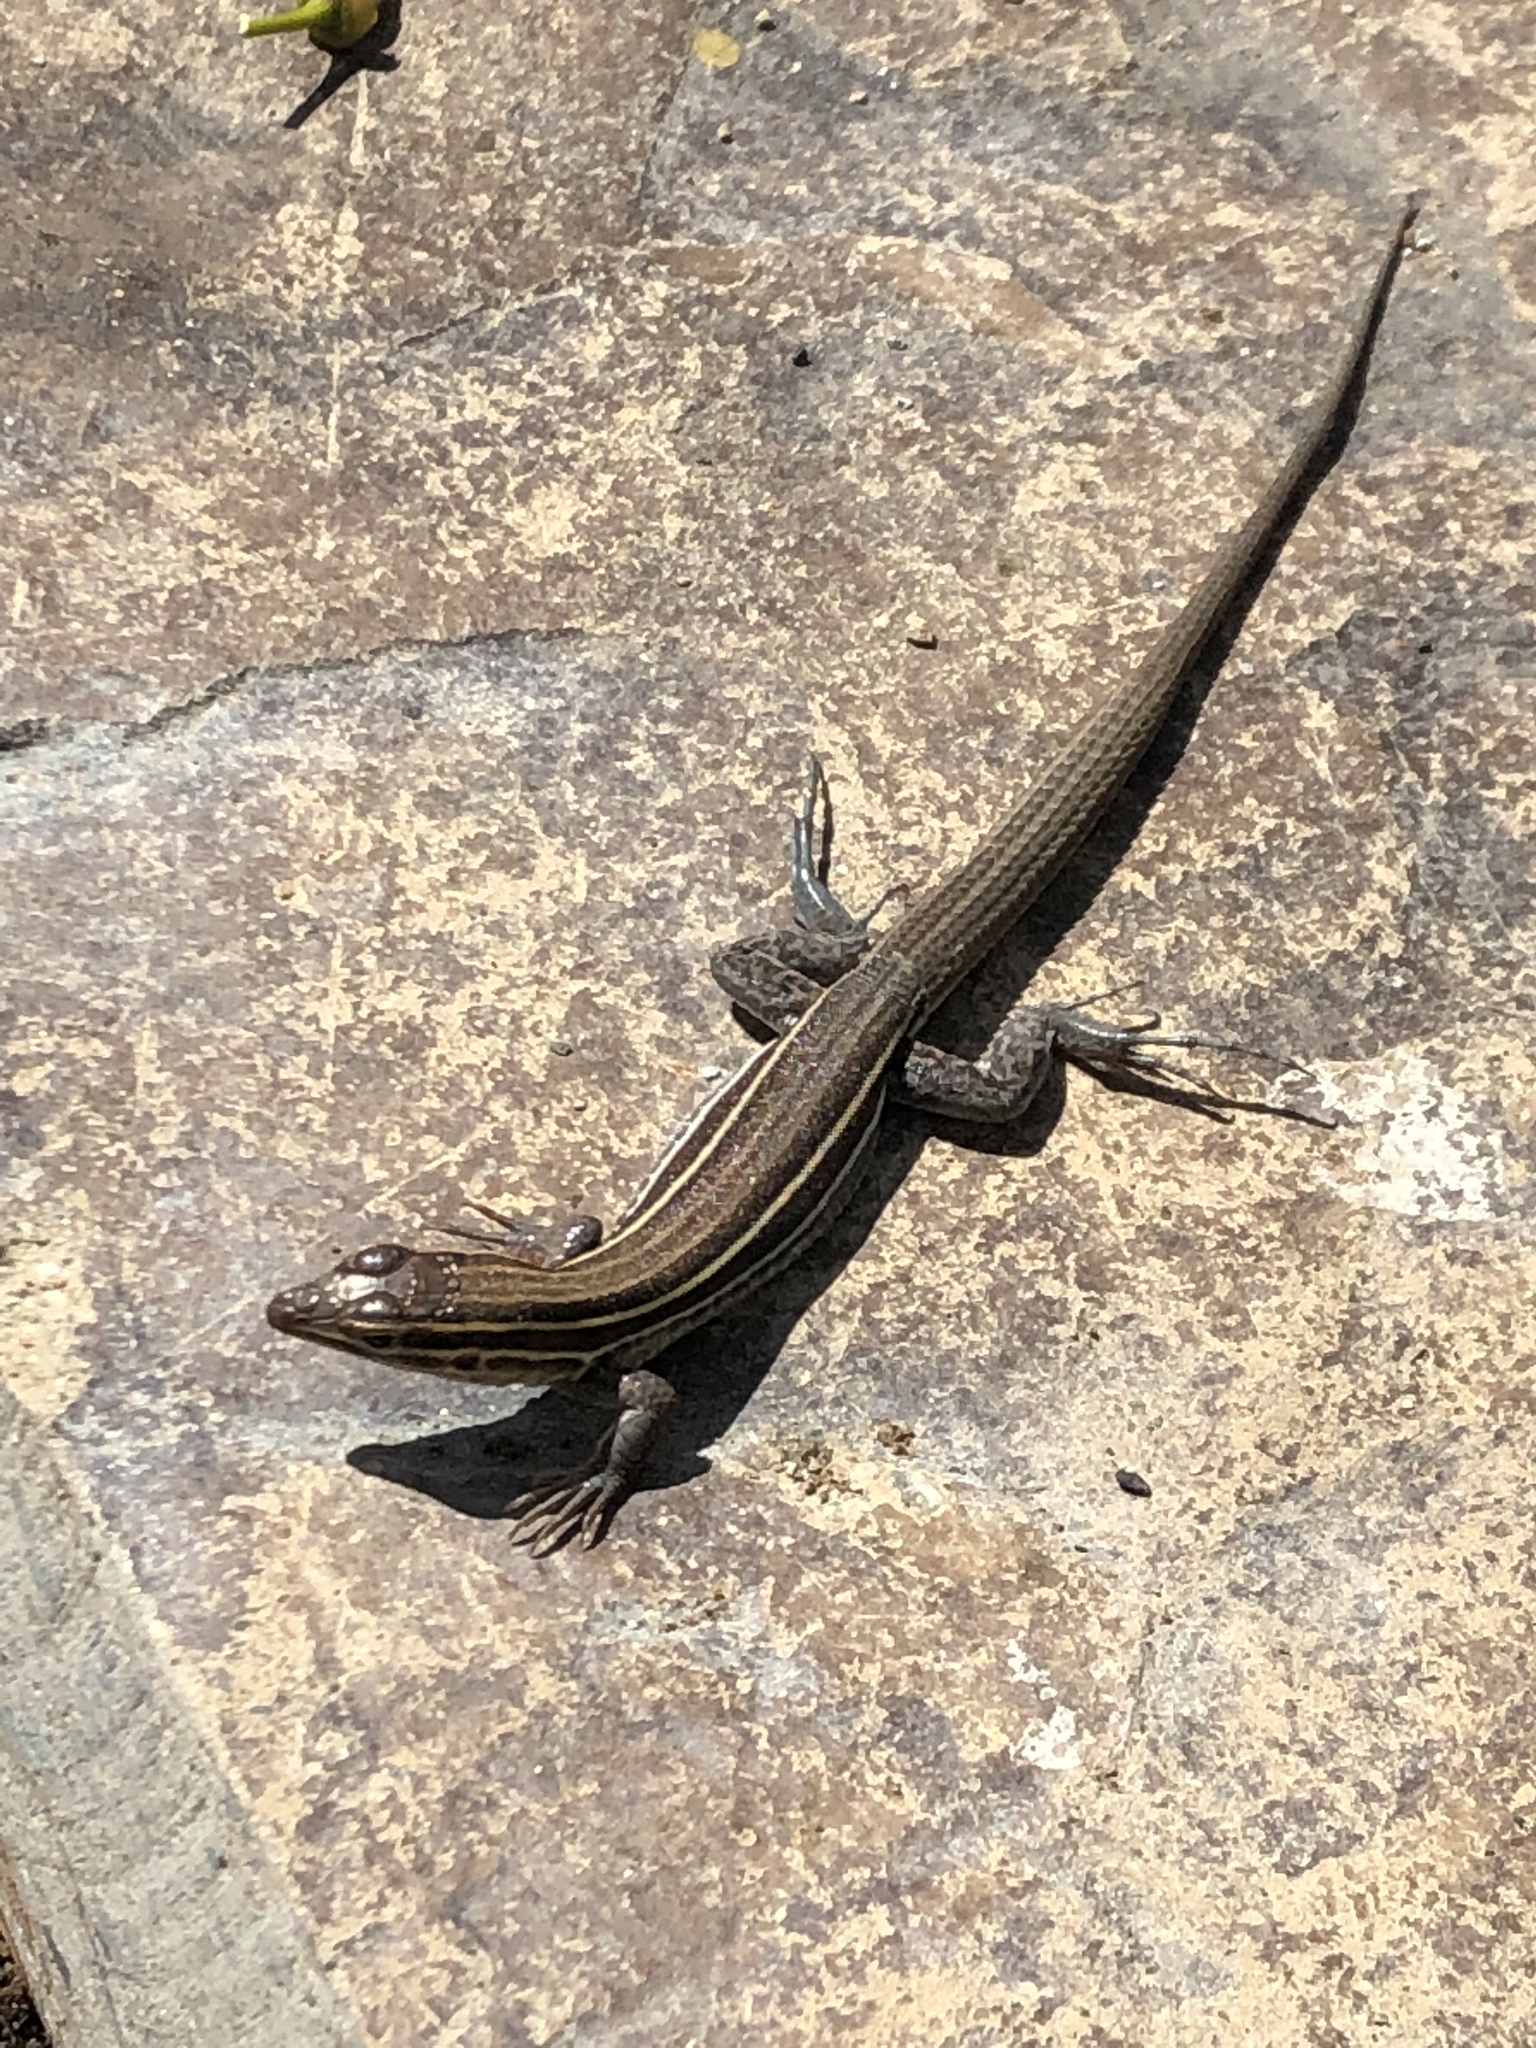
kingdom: Animalia
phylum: Chordata
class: Squamata
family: Teiidae
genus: Aspidoscelis
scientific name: Aspidoscelis hyperythrus
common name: Orange-throated race-runner
